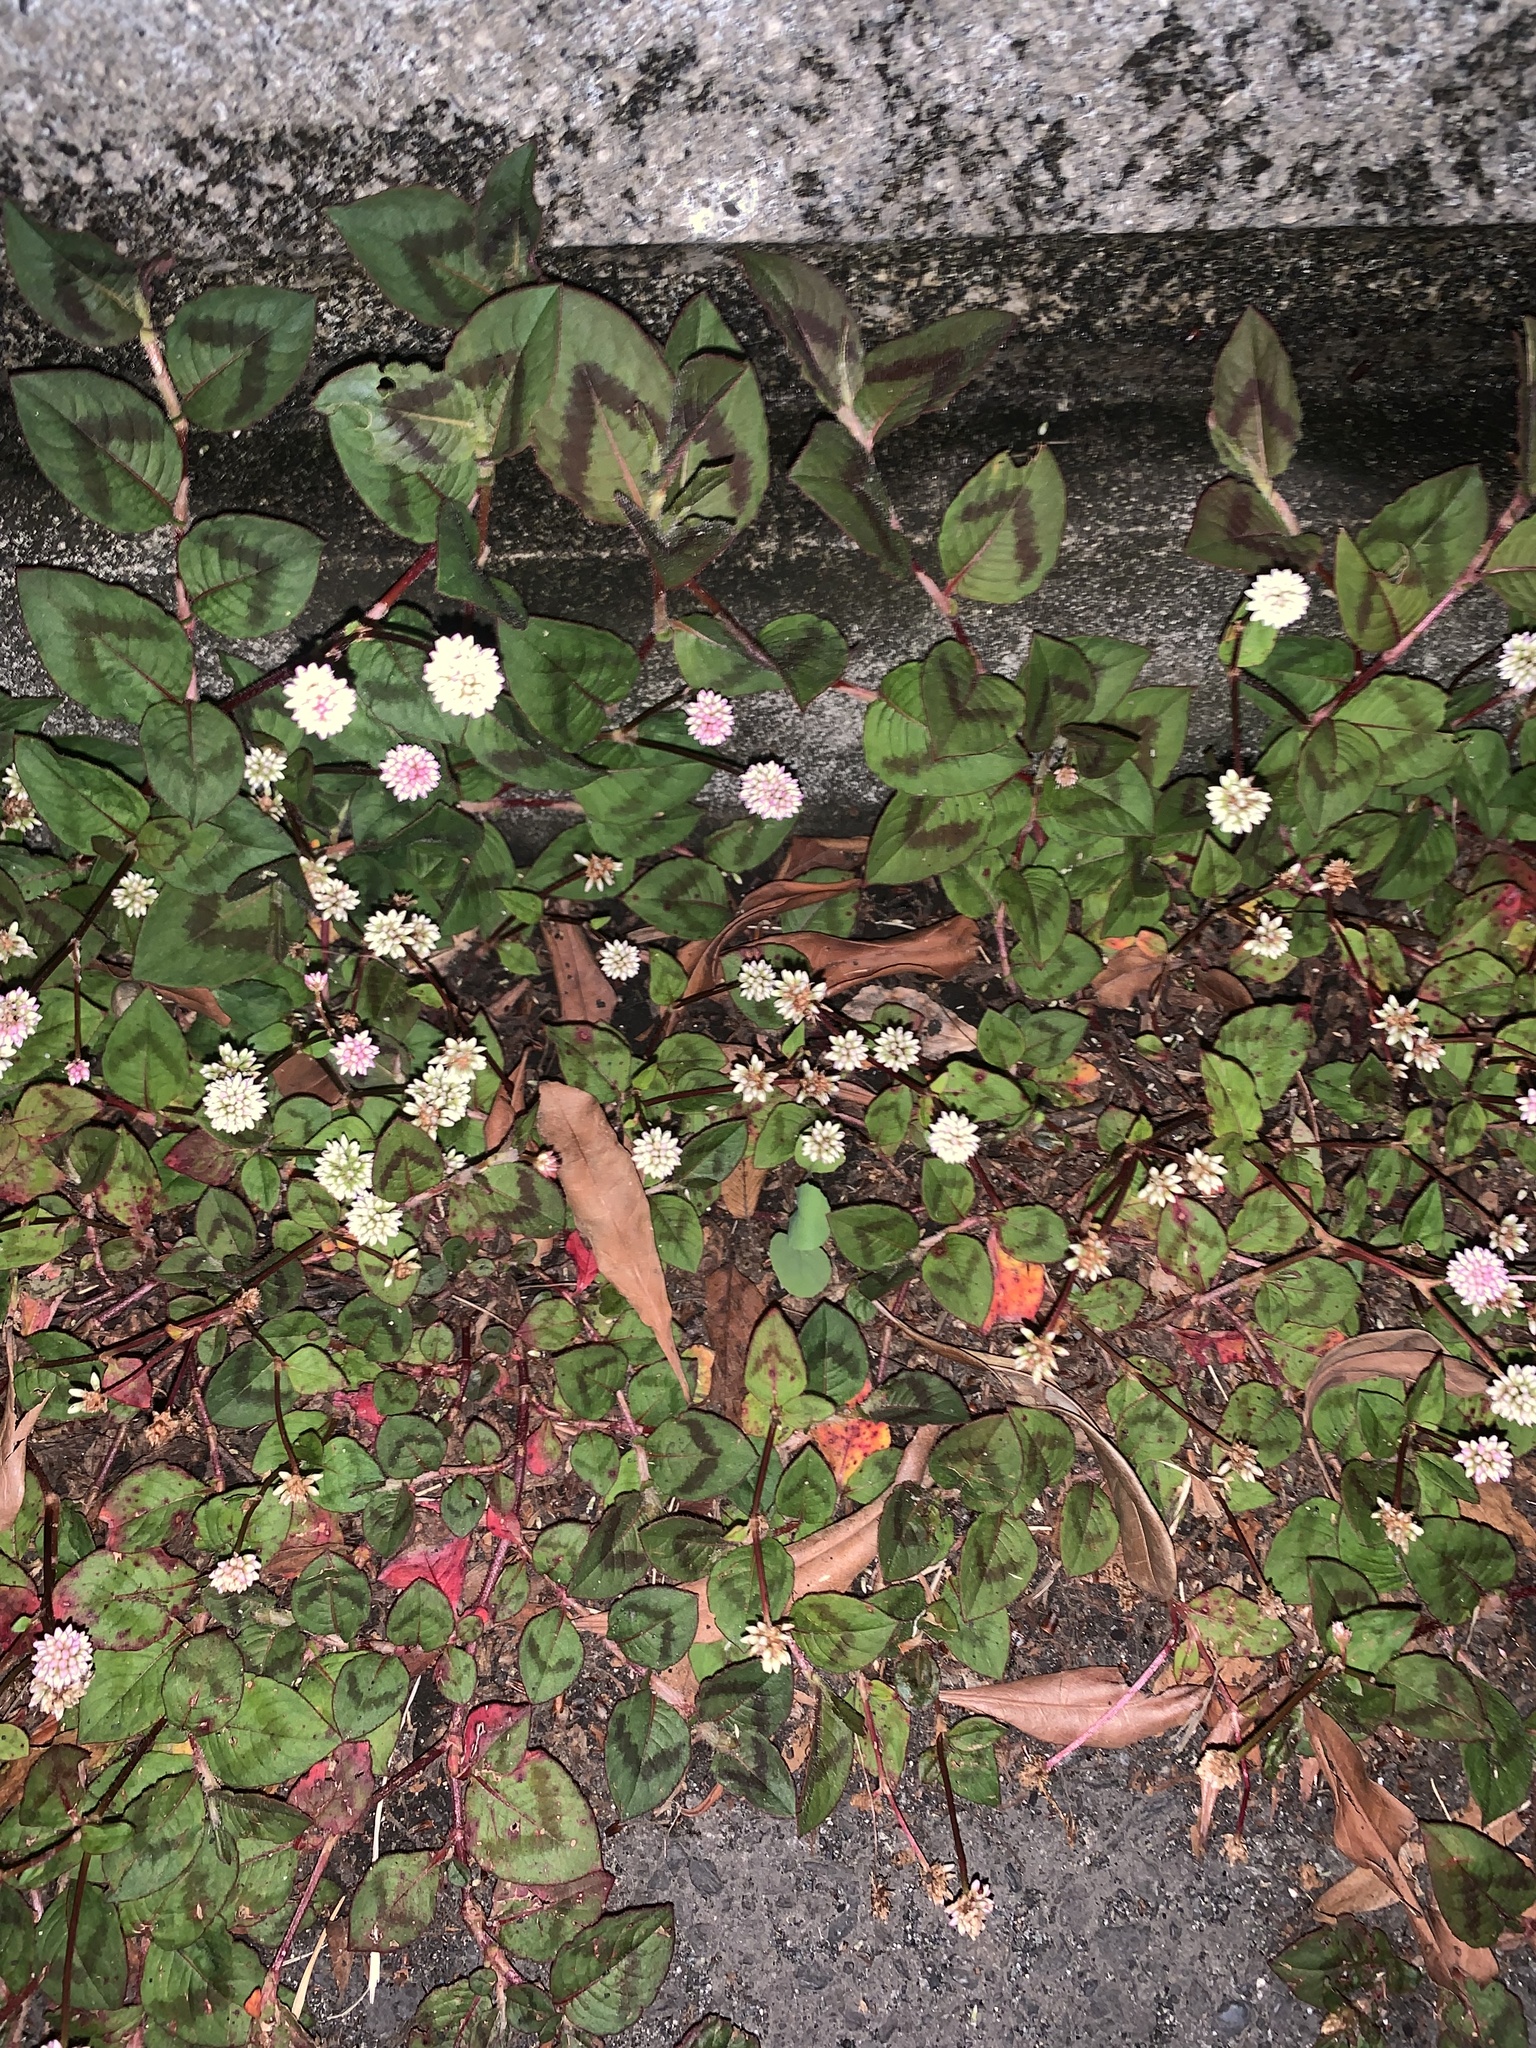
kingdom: Plantae
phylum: Tracheophyta
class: Magnoliopsida
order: Caryophyllales
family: Polygonaceae
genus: Persicaria
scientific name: Persicaria capitata
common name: Pinkhead smartweed
